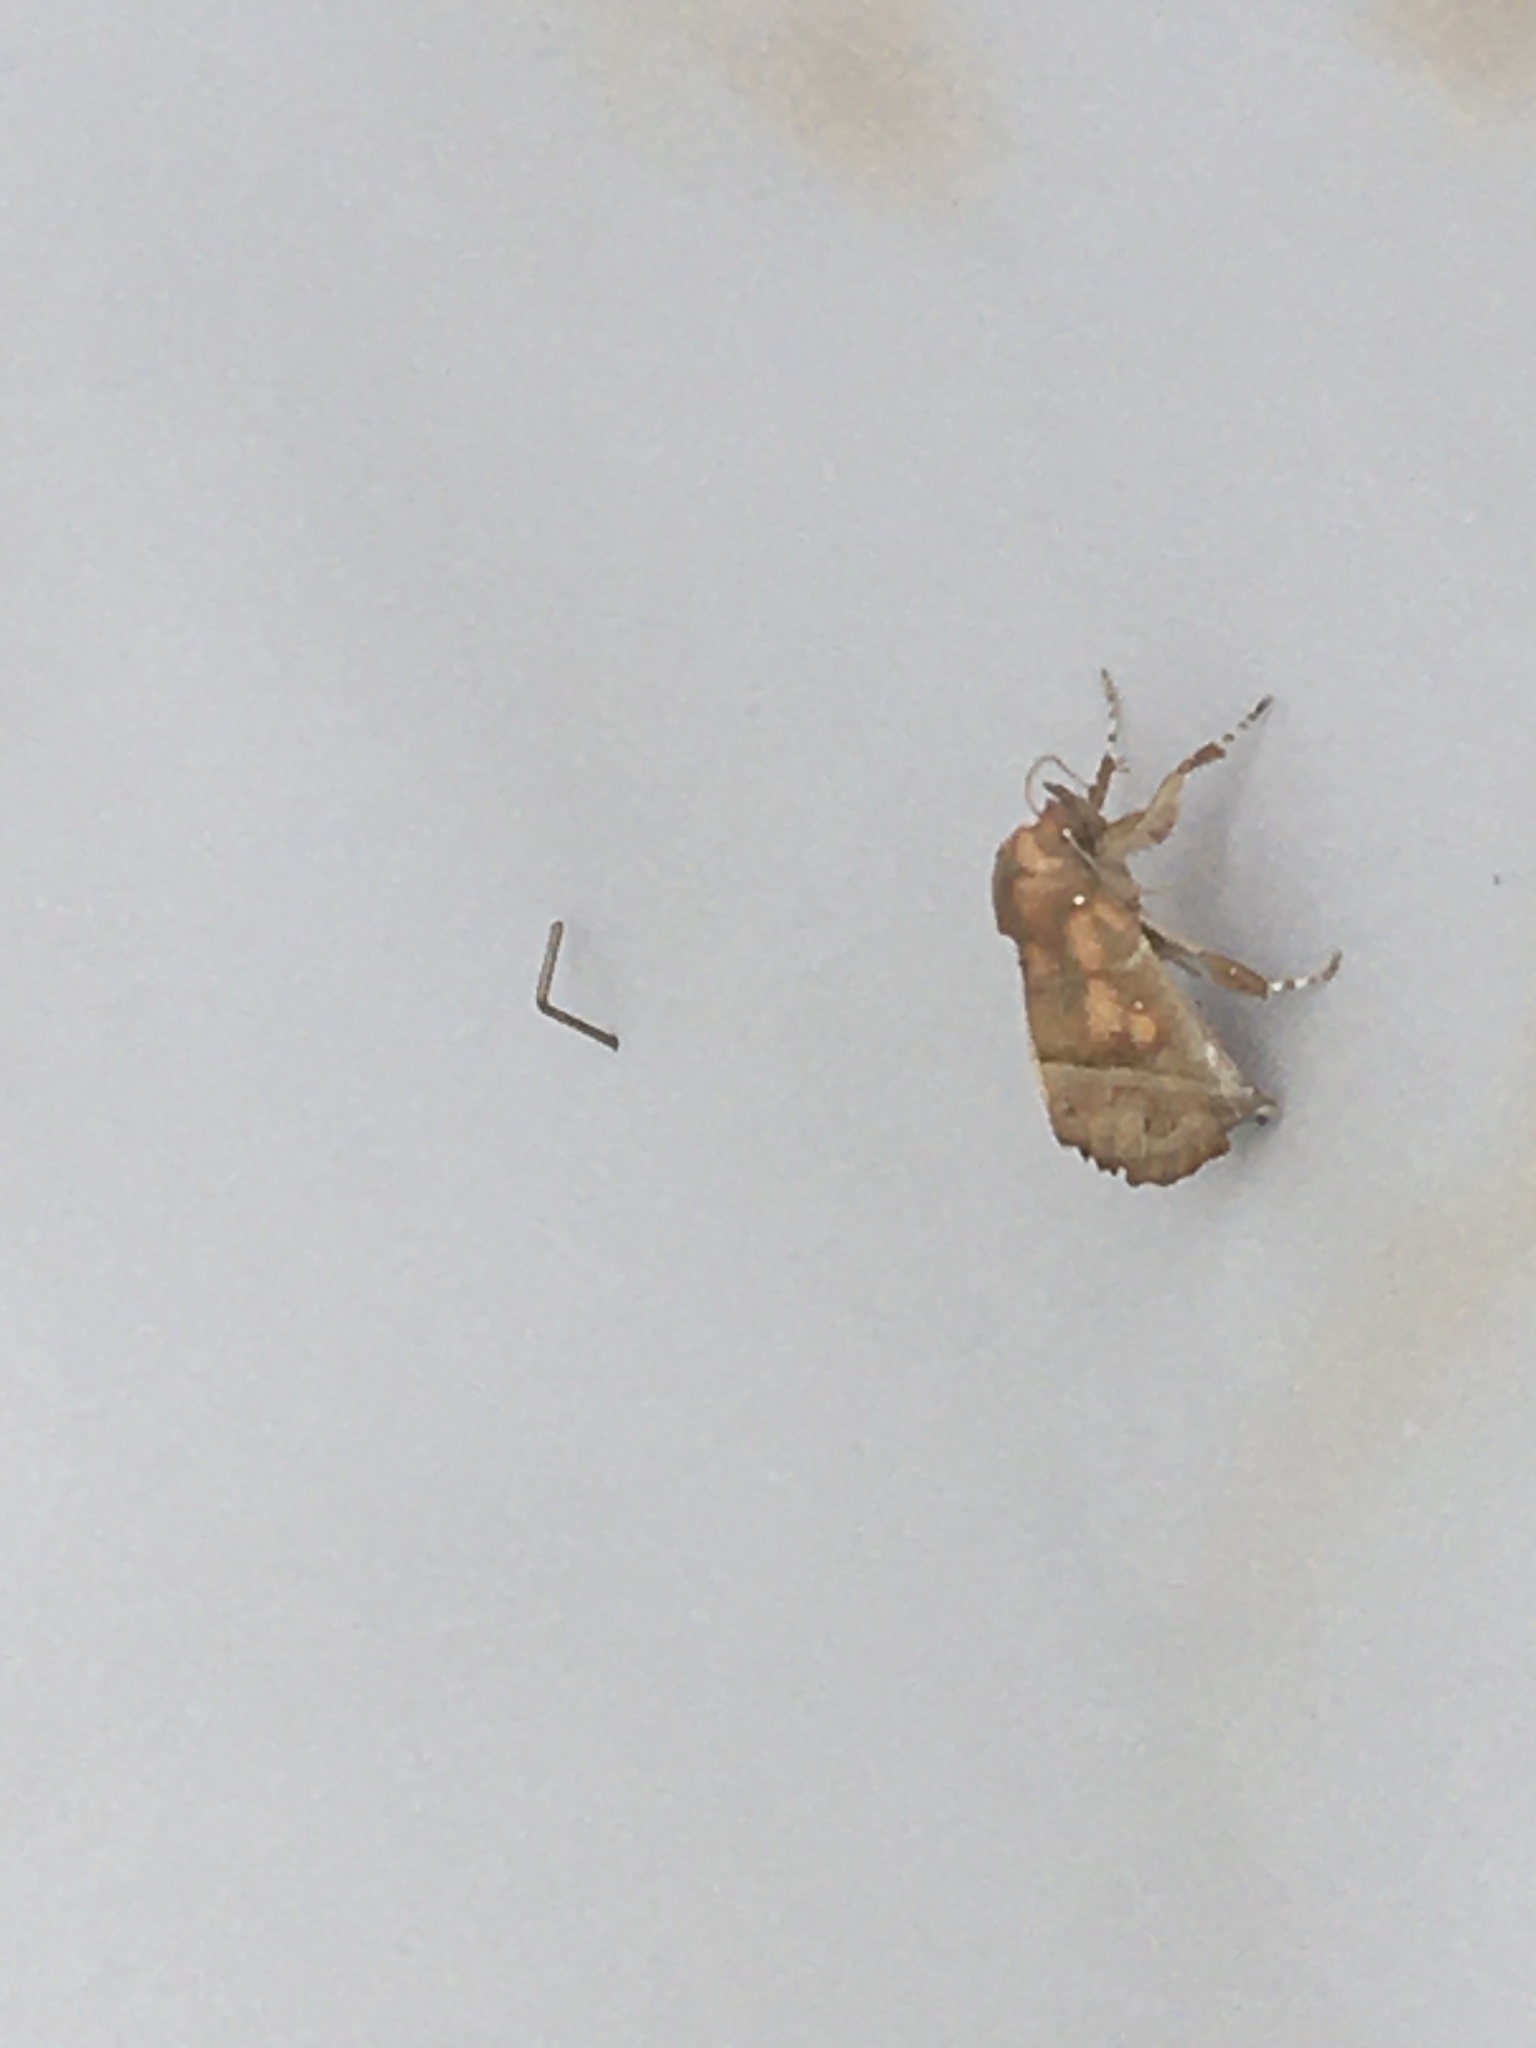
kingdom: Animalia
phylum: Arthropoda
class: Insecta
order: Lepidoptera
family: Erebidae
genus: Scoliopteryx
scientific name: Scoliopteryx libatrix
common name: Herald
